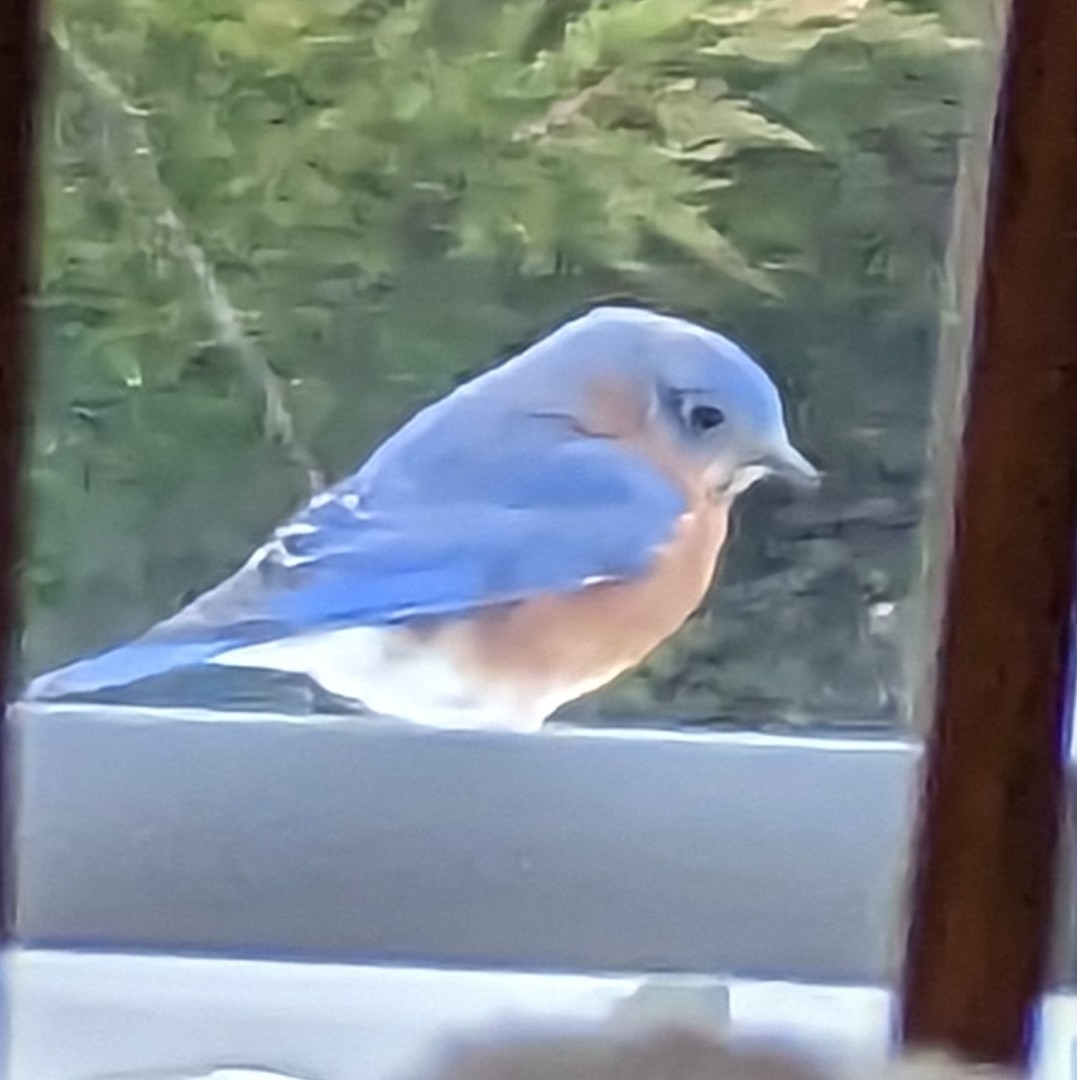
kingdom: Animalia
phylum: Chordata
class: Aves
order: Passeriformes
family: Turdidae
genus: Sialia
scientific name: Sialia sialis
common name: Eastern bluebird
